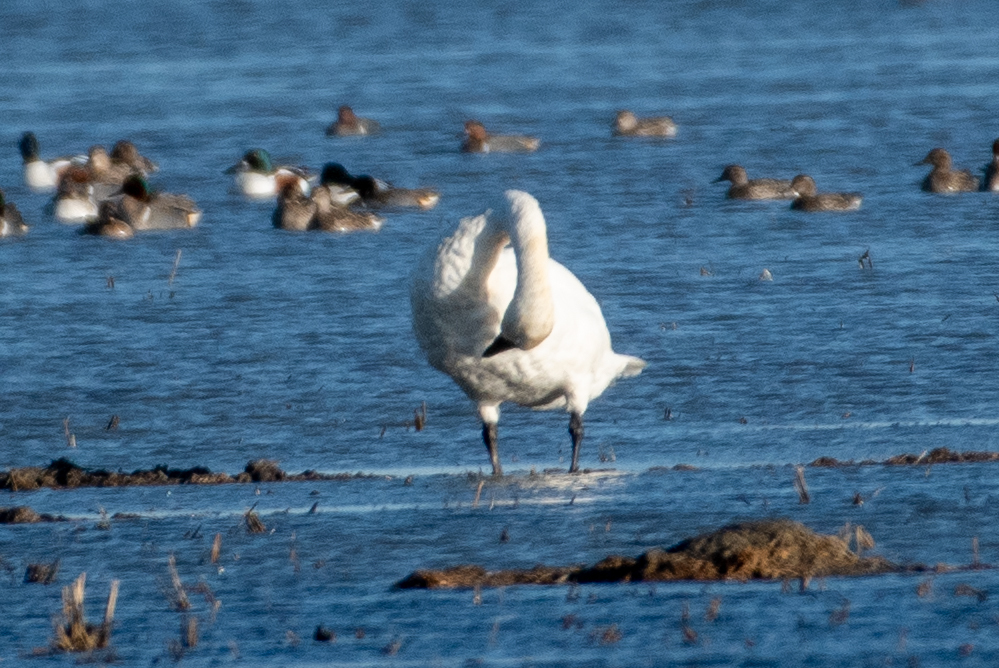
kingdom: Animalia
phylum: Chordata
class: Aves
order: Anseriformes
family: Anatidae
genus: Cygnus
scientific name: Cygnus columbianus
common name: Tundra swan
